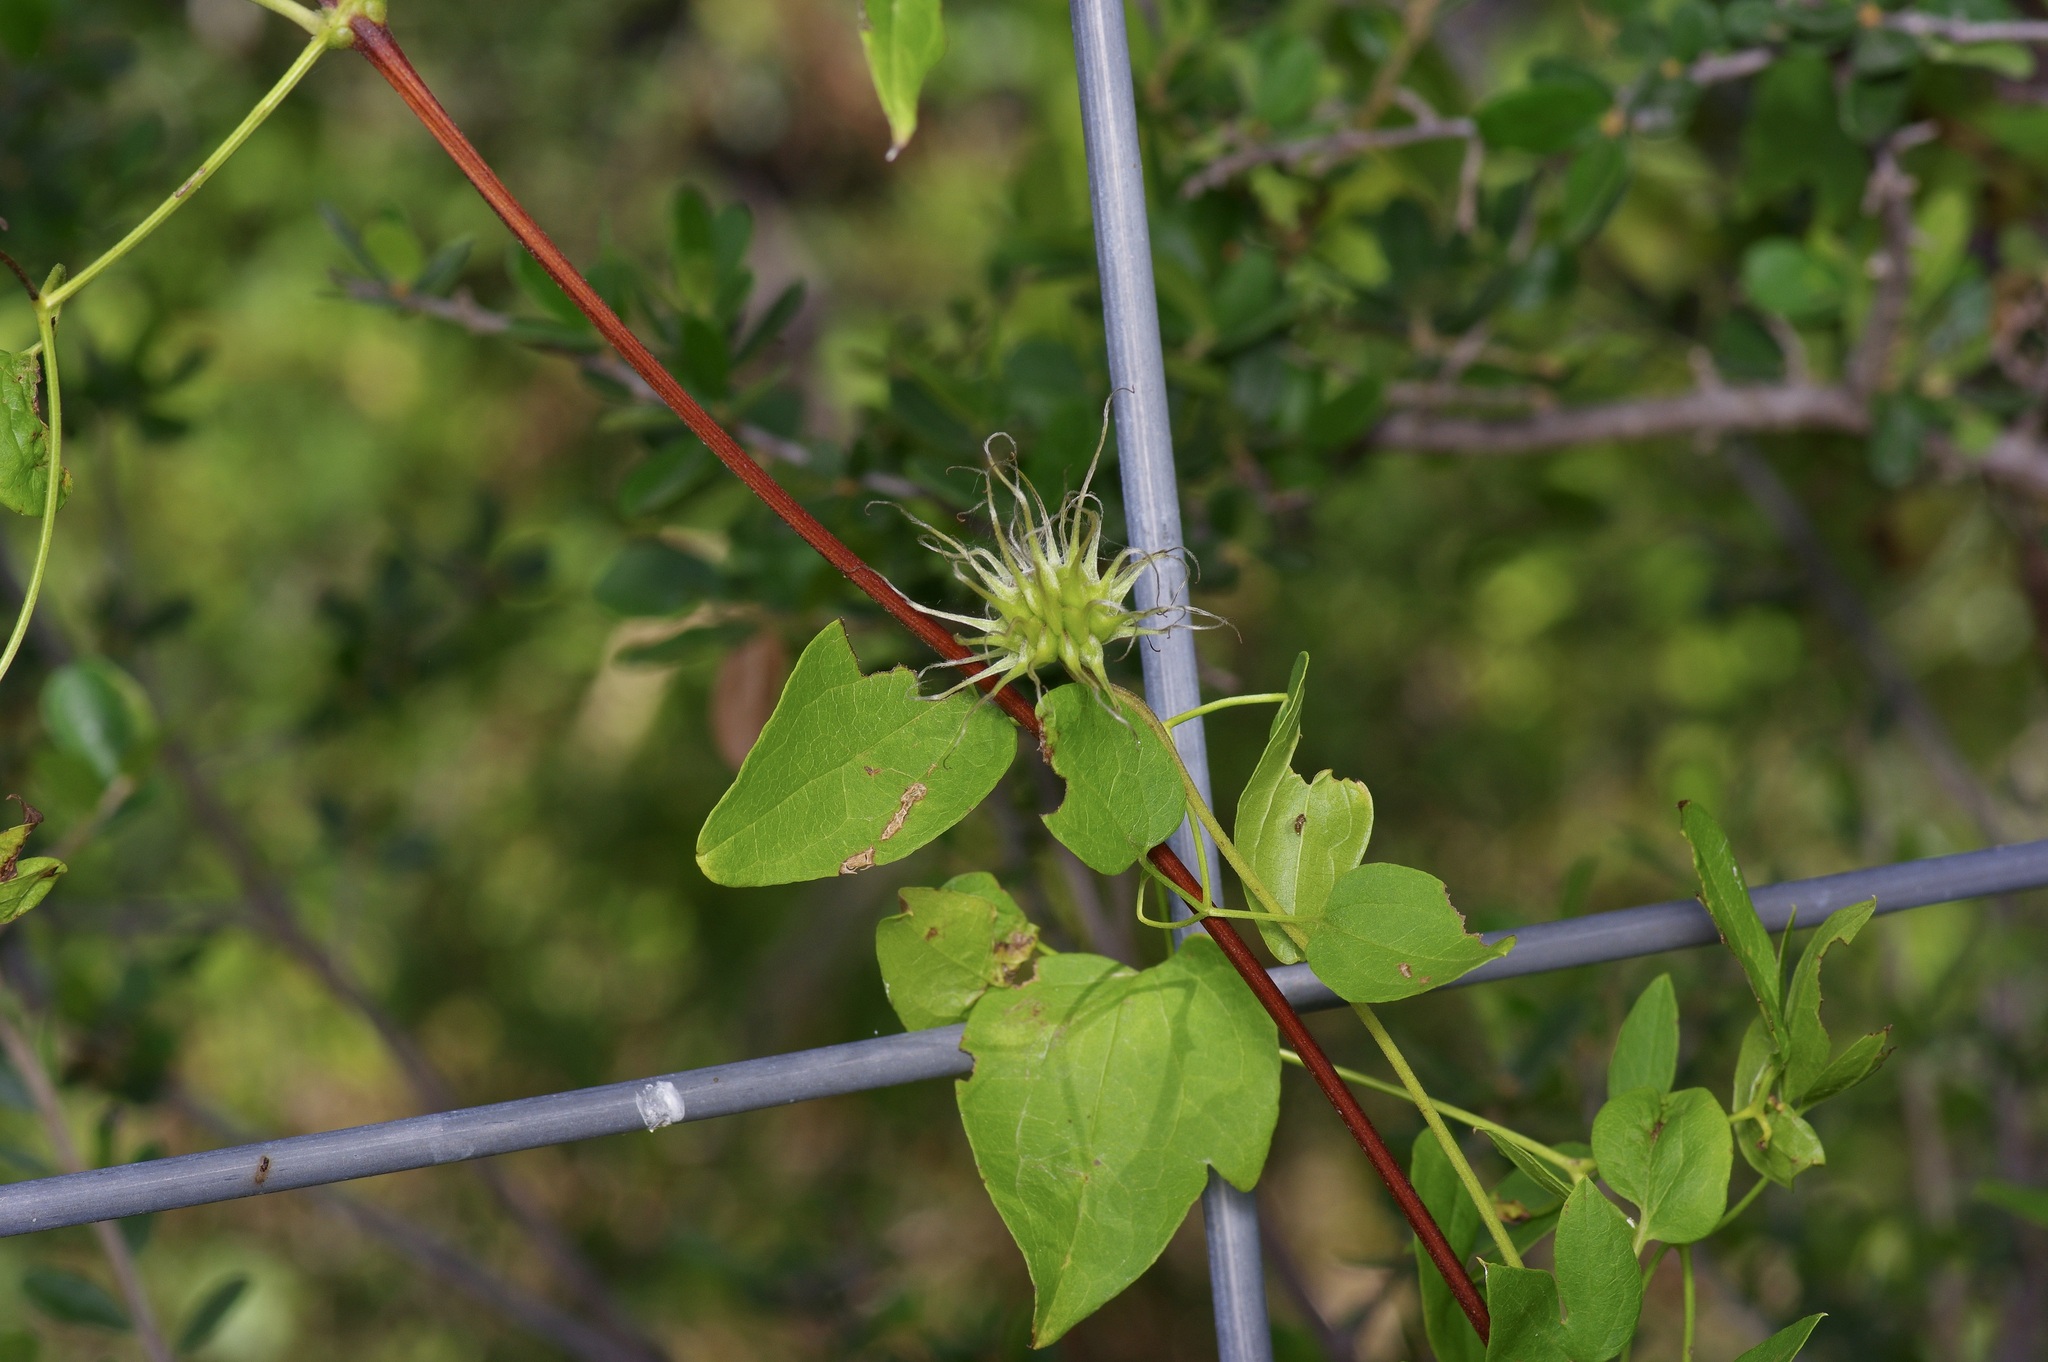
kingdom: Plantae
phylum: Tracheophyta
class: Magnoliopsida
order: Ranunculales
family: Ranunculaceae
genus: Clematis
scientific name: Clematis pitcheri
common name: Bellflower clematis
